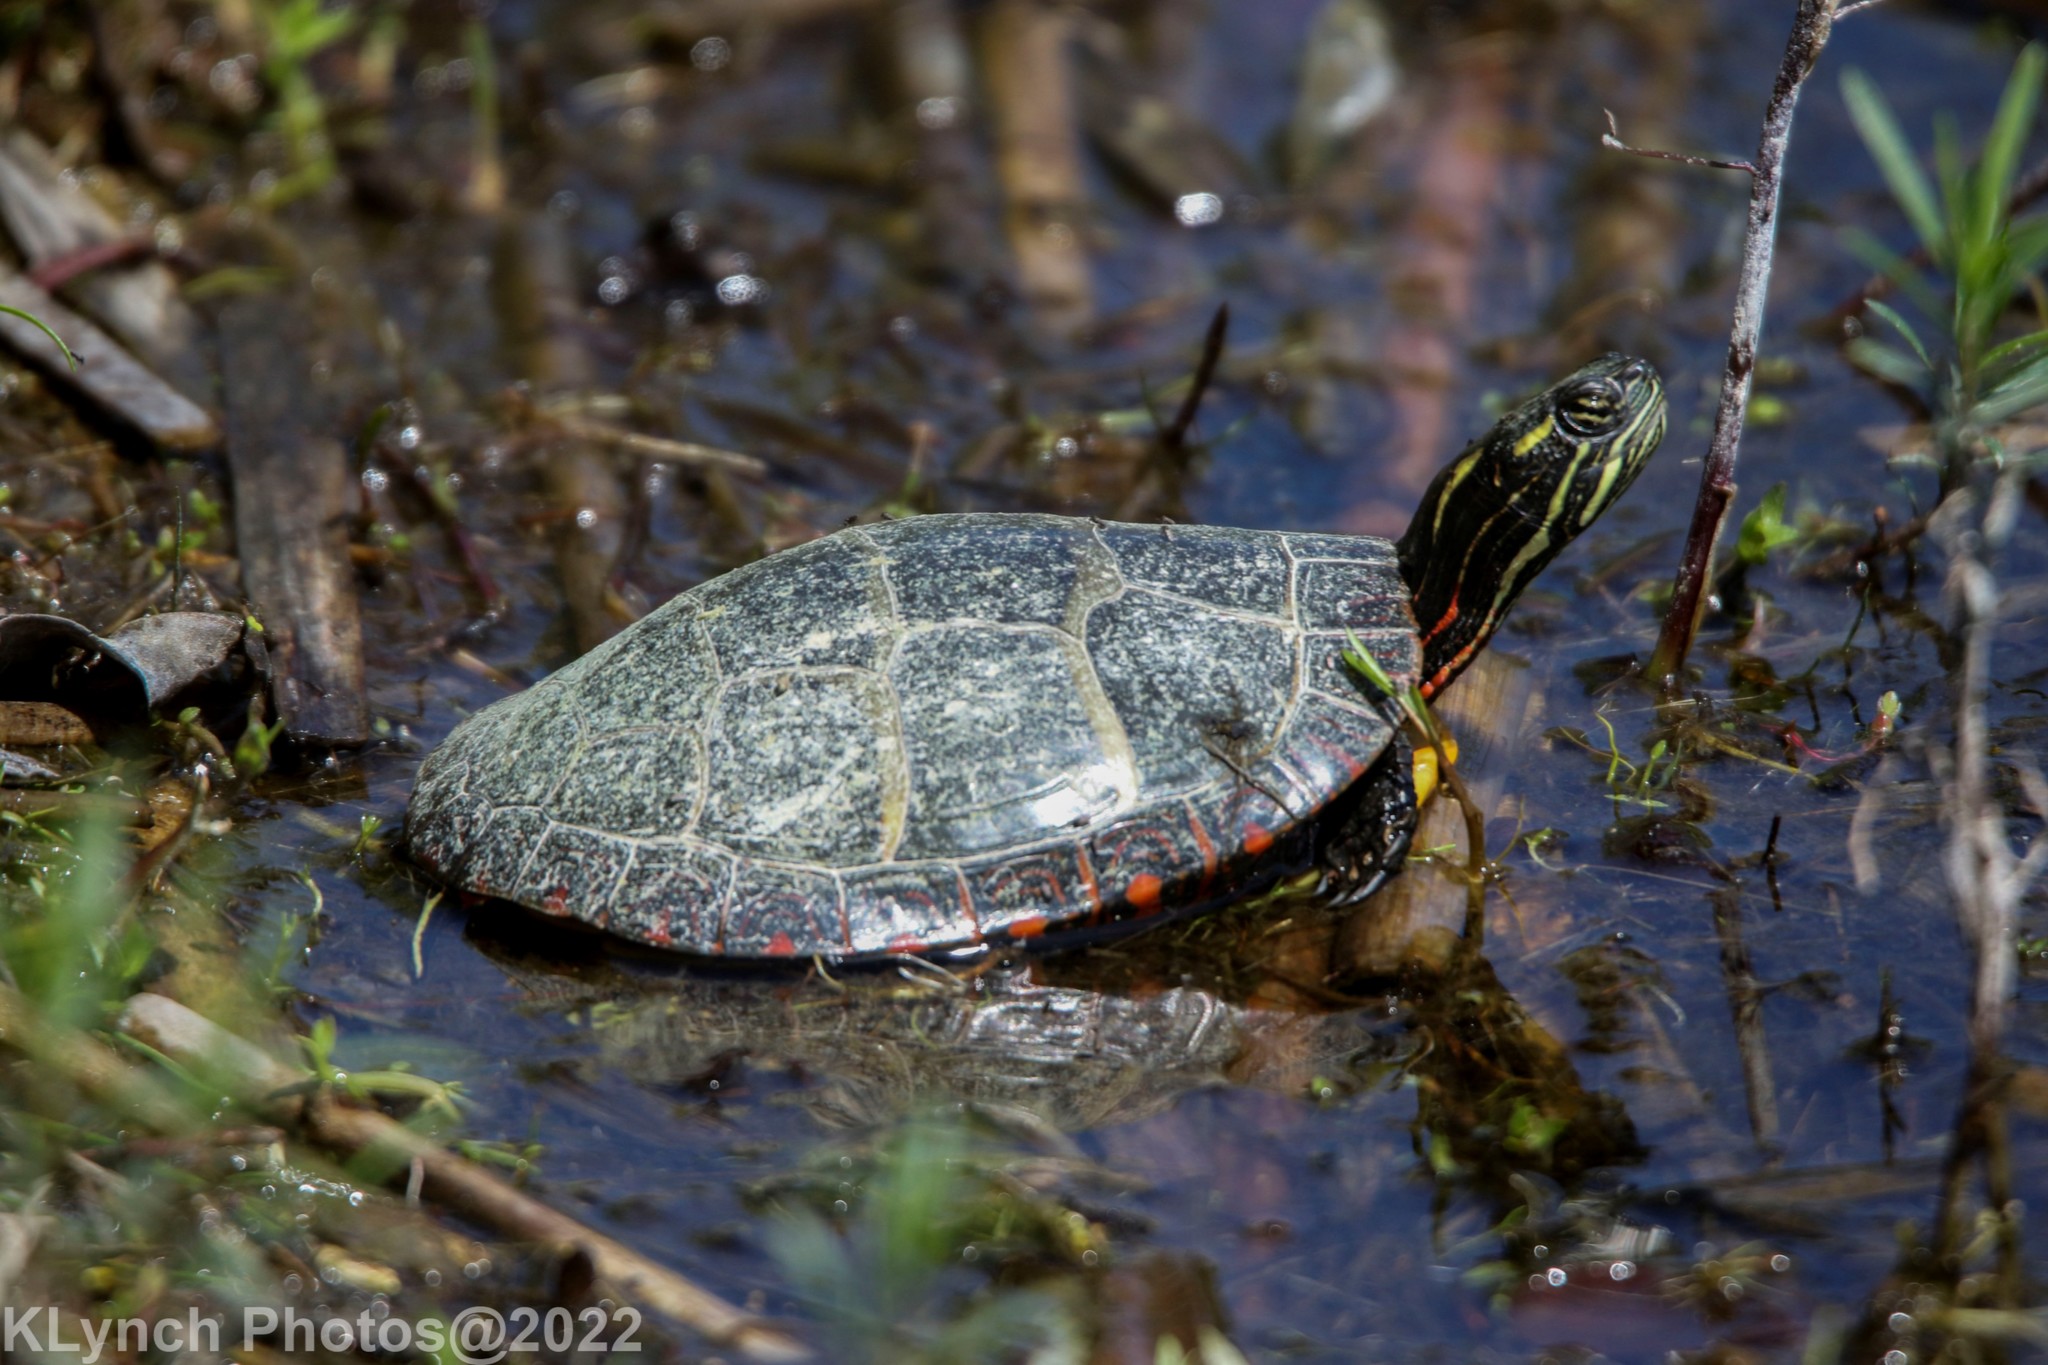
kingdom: Animalia
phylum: Chordata
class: Testudines
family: Emydidae
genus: Chrysemys
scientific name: Chrysemys picta
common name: Painted turtle
